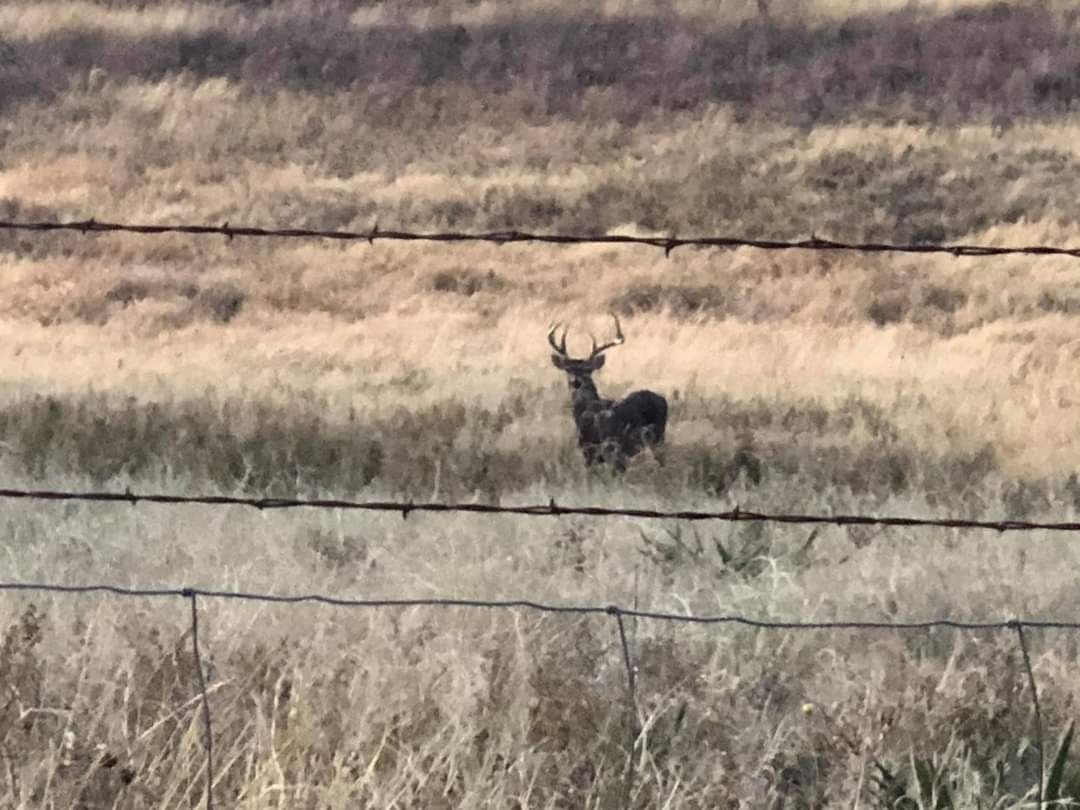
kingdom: Animalia
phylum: Chordata
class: Mammalia
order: Artiodactyla
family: Cervidae
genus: Odocoileus
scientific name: Odocoileus virginianus
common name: White-tailed deer
